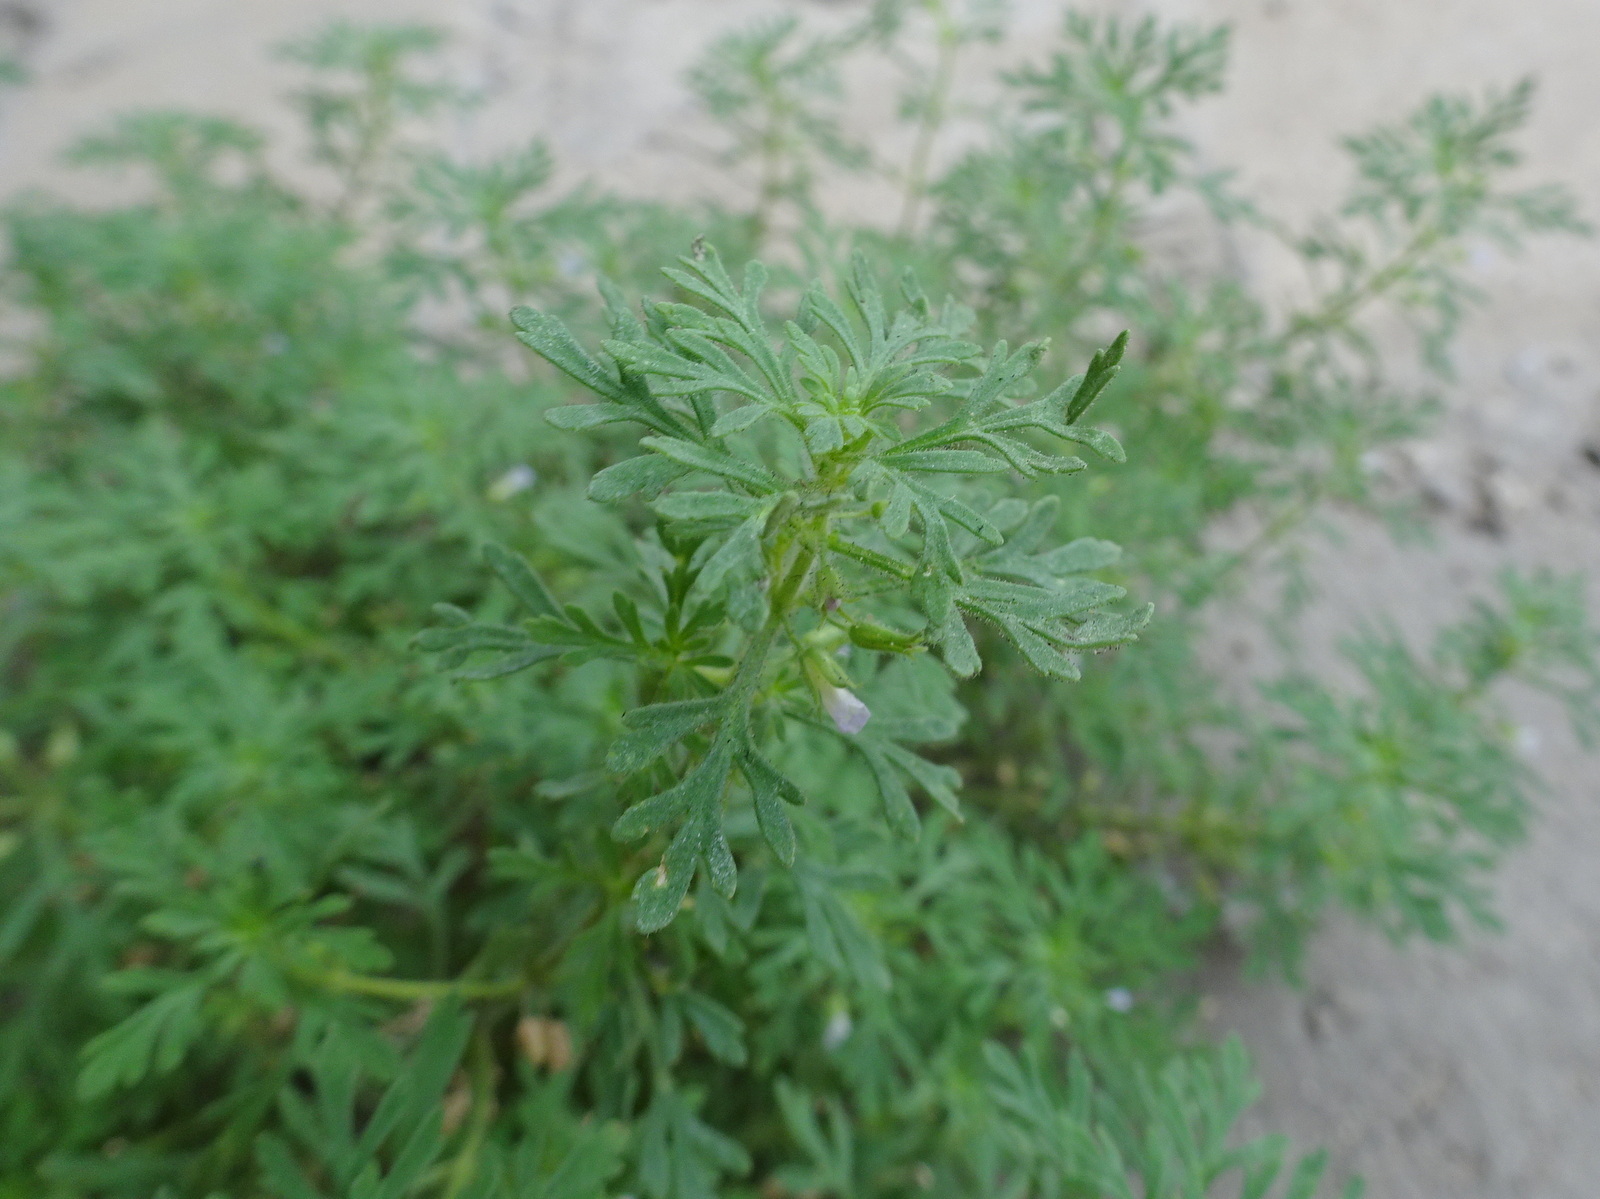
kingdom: Plantae
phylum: Tracheophyta
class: Magnoliopsida
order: Lamiales
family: Plantaginaceae
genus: Leucospora
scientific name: Leucospora multifida
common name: Narrow-leaf paleseed
